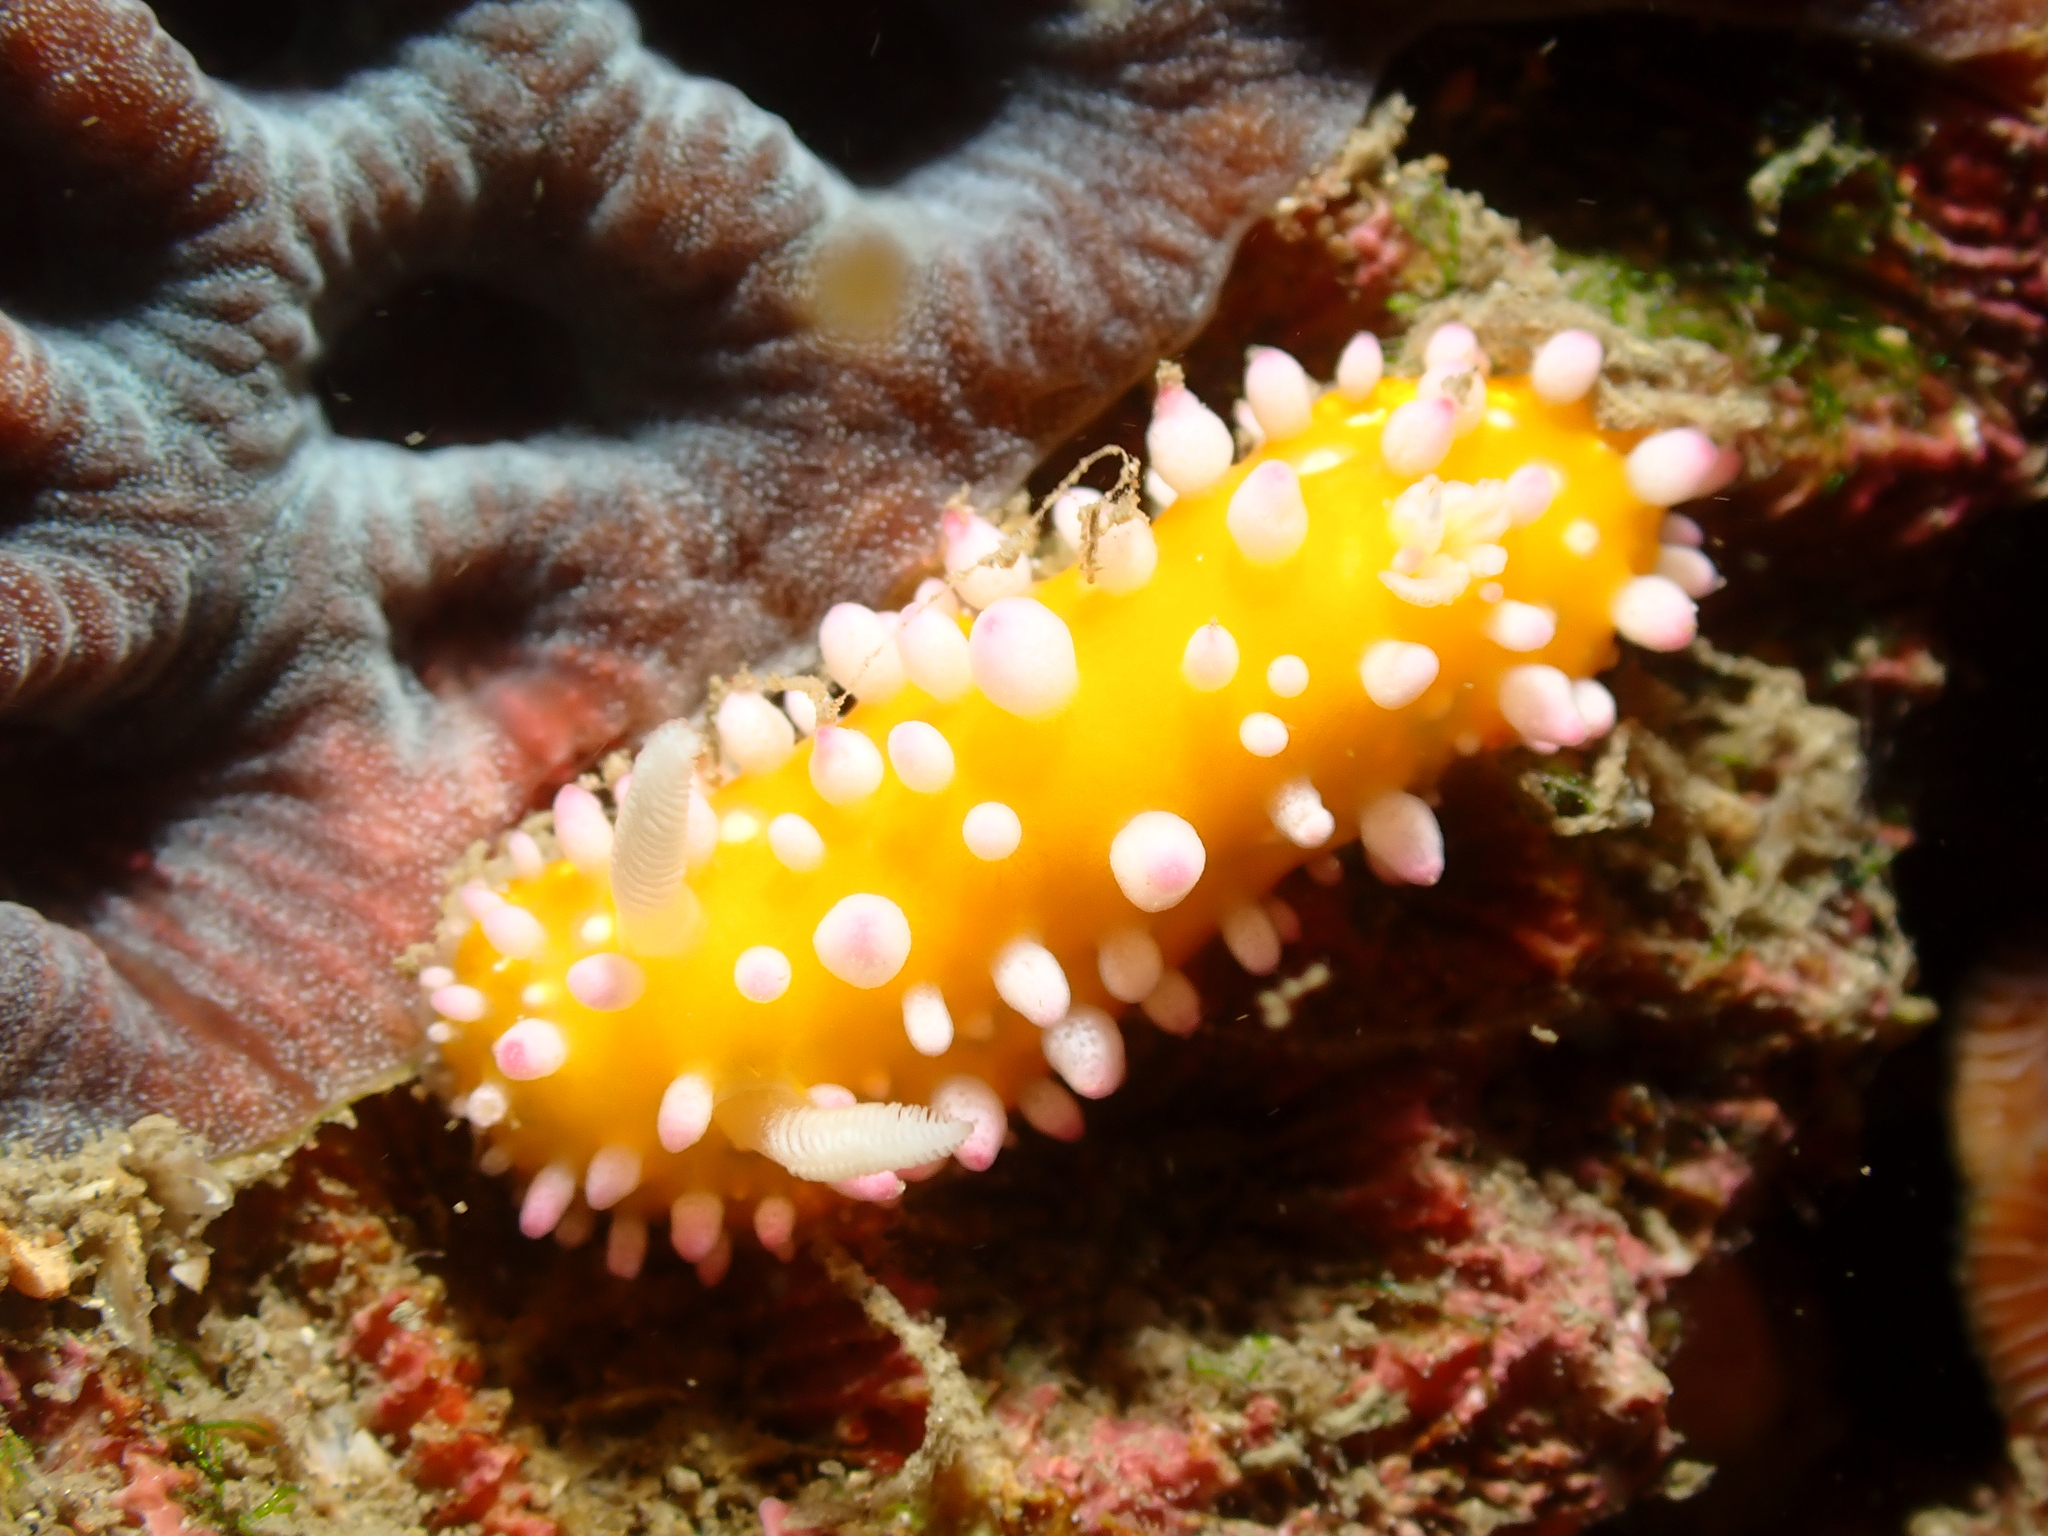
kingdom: Animalia
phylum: Mollusca
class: Gastropoda
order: Nudibranchia
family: Cadlinellidae
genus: Cadlinella
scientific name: Cadlinella ornatissima
